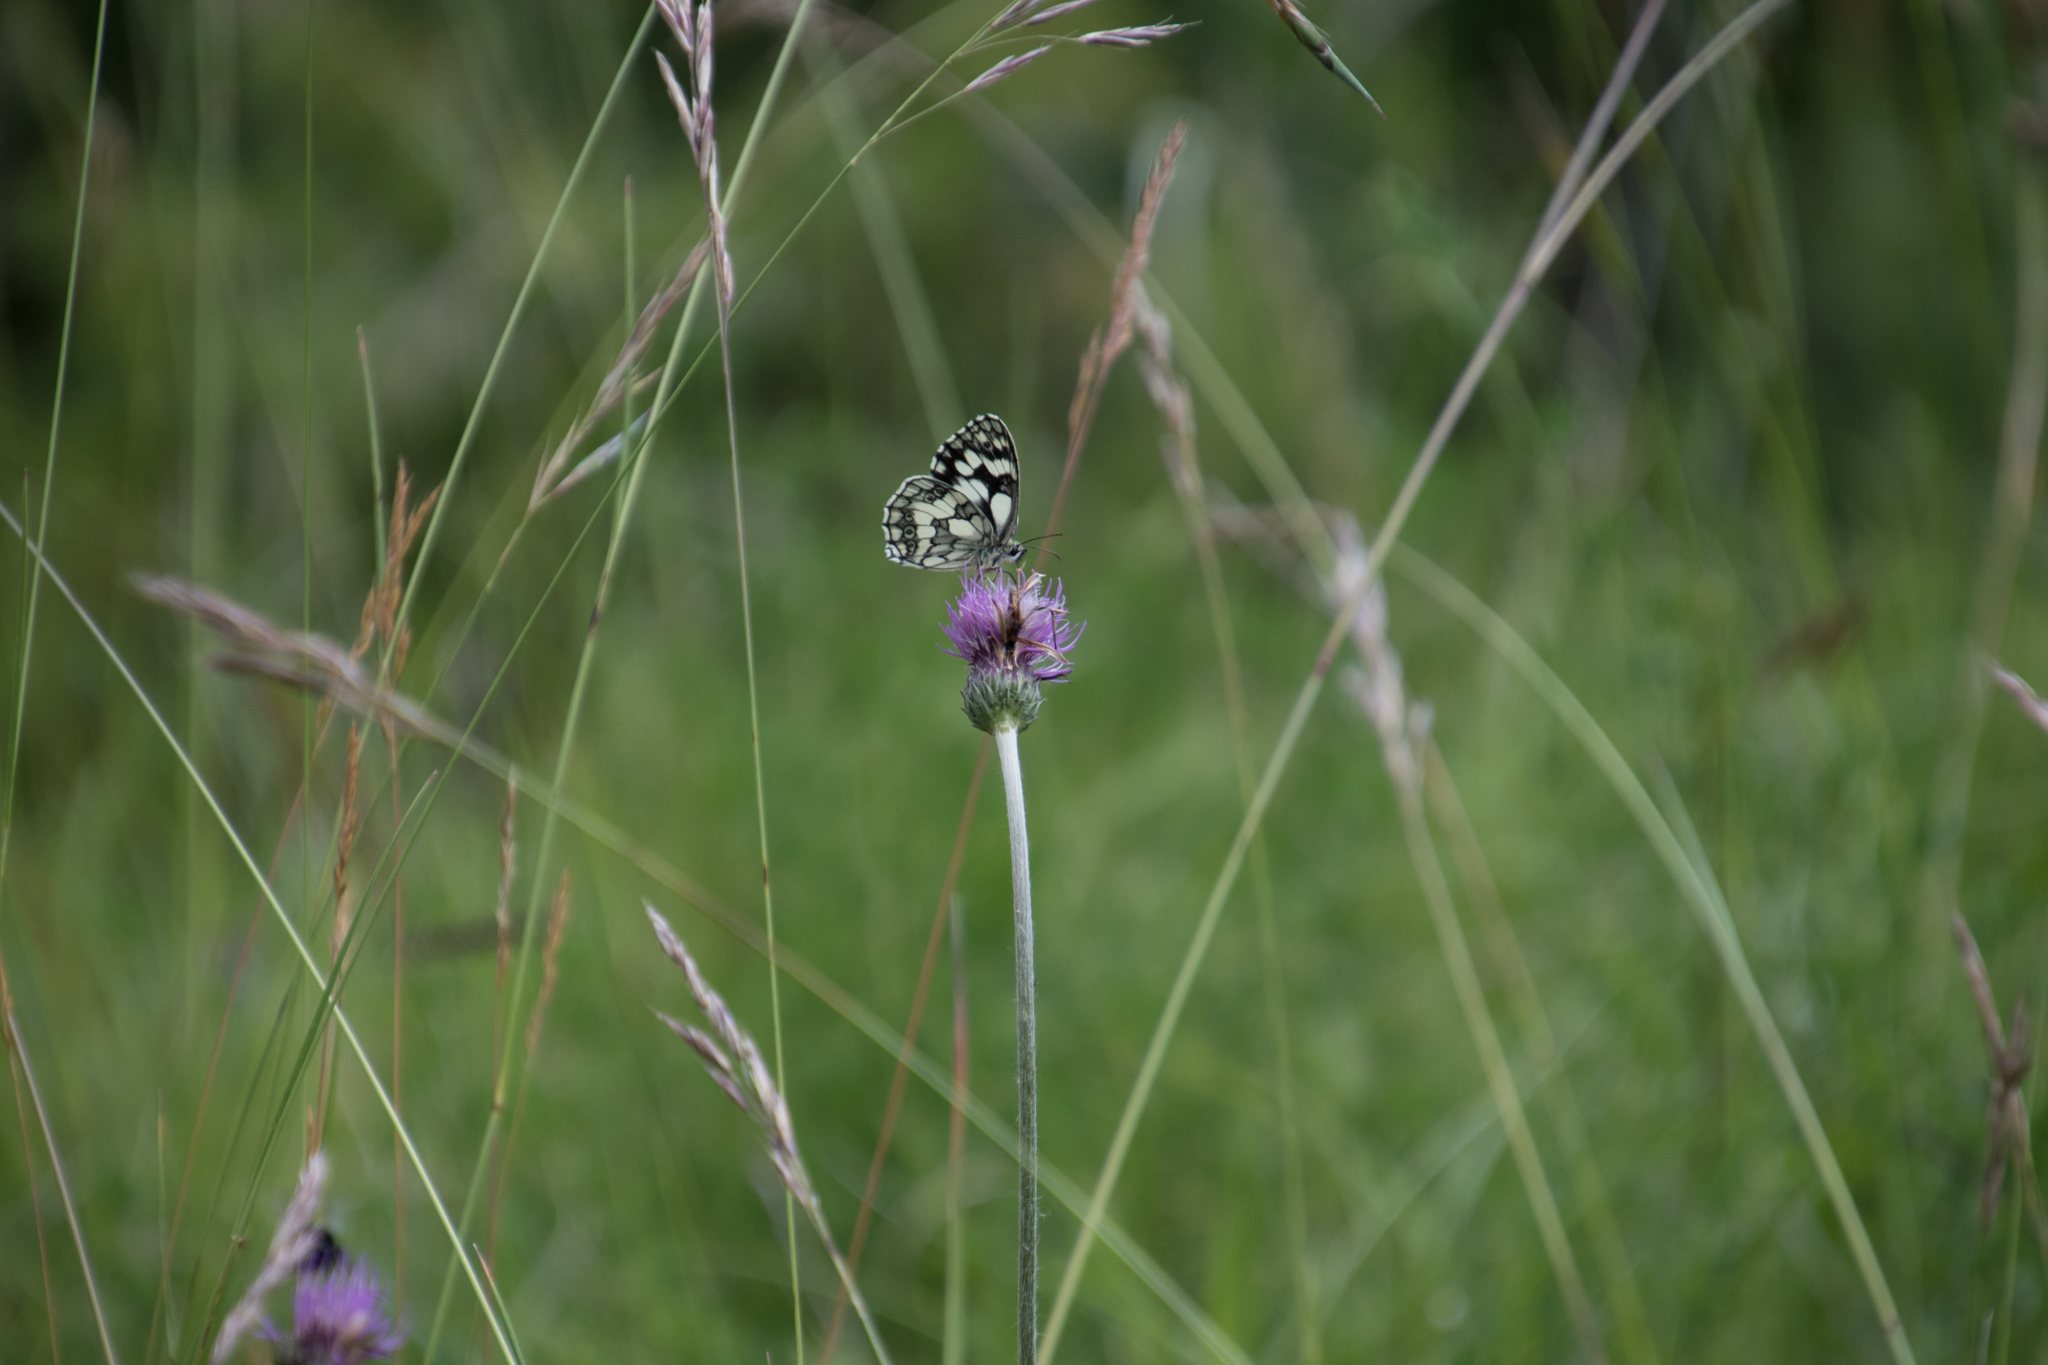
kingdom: Animalia
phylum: Arthropoda
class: Insecta
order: Lepidoptera
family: Nymphalidae
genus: Melanargia
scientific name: Melanargia galathea
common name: Marbled white
